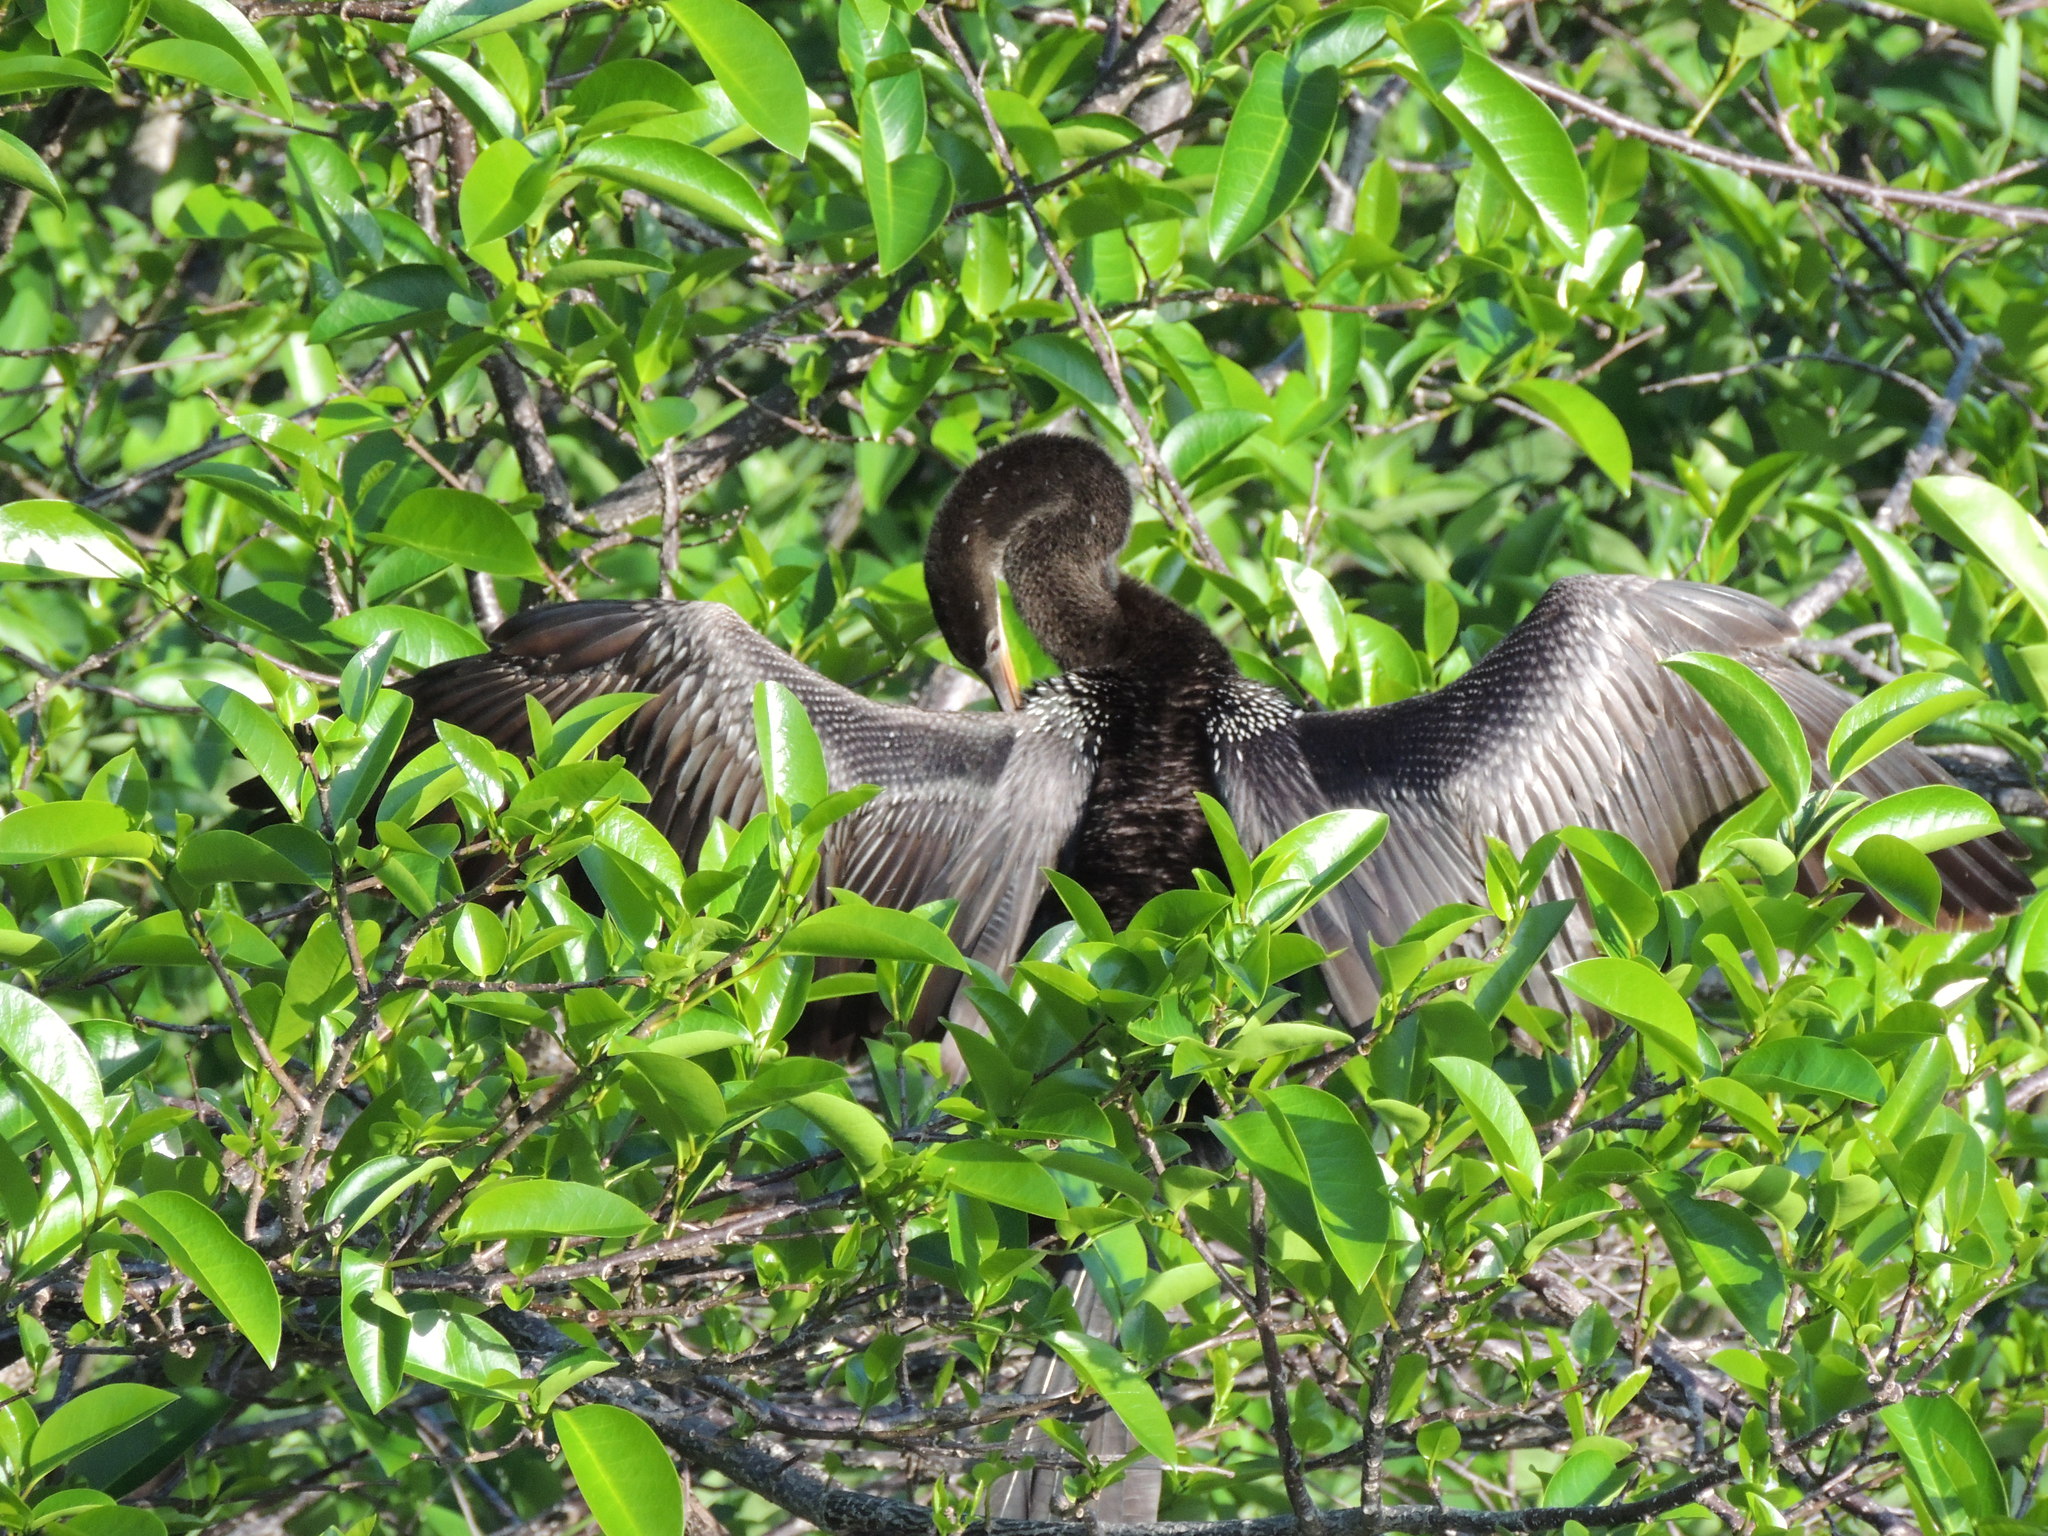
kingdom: Animalia
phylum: Chordata
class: Aves
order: Suliformes
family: Anhingidae
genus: Anhinga
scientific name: Anhinga anhinga
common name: Anhinga
